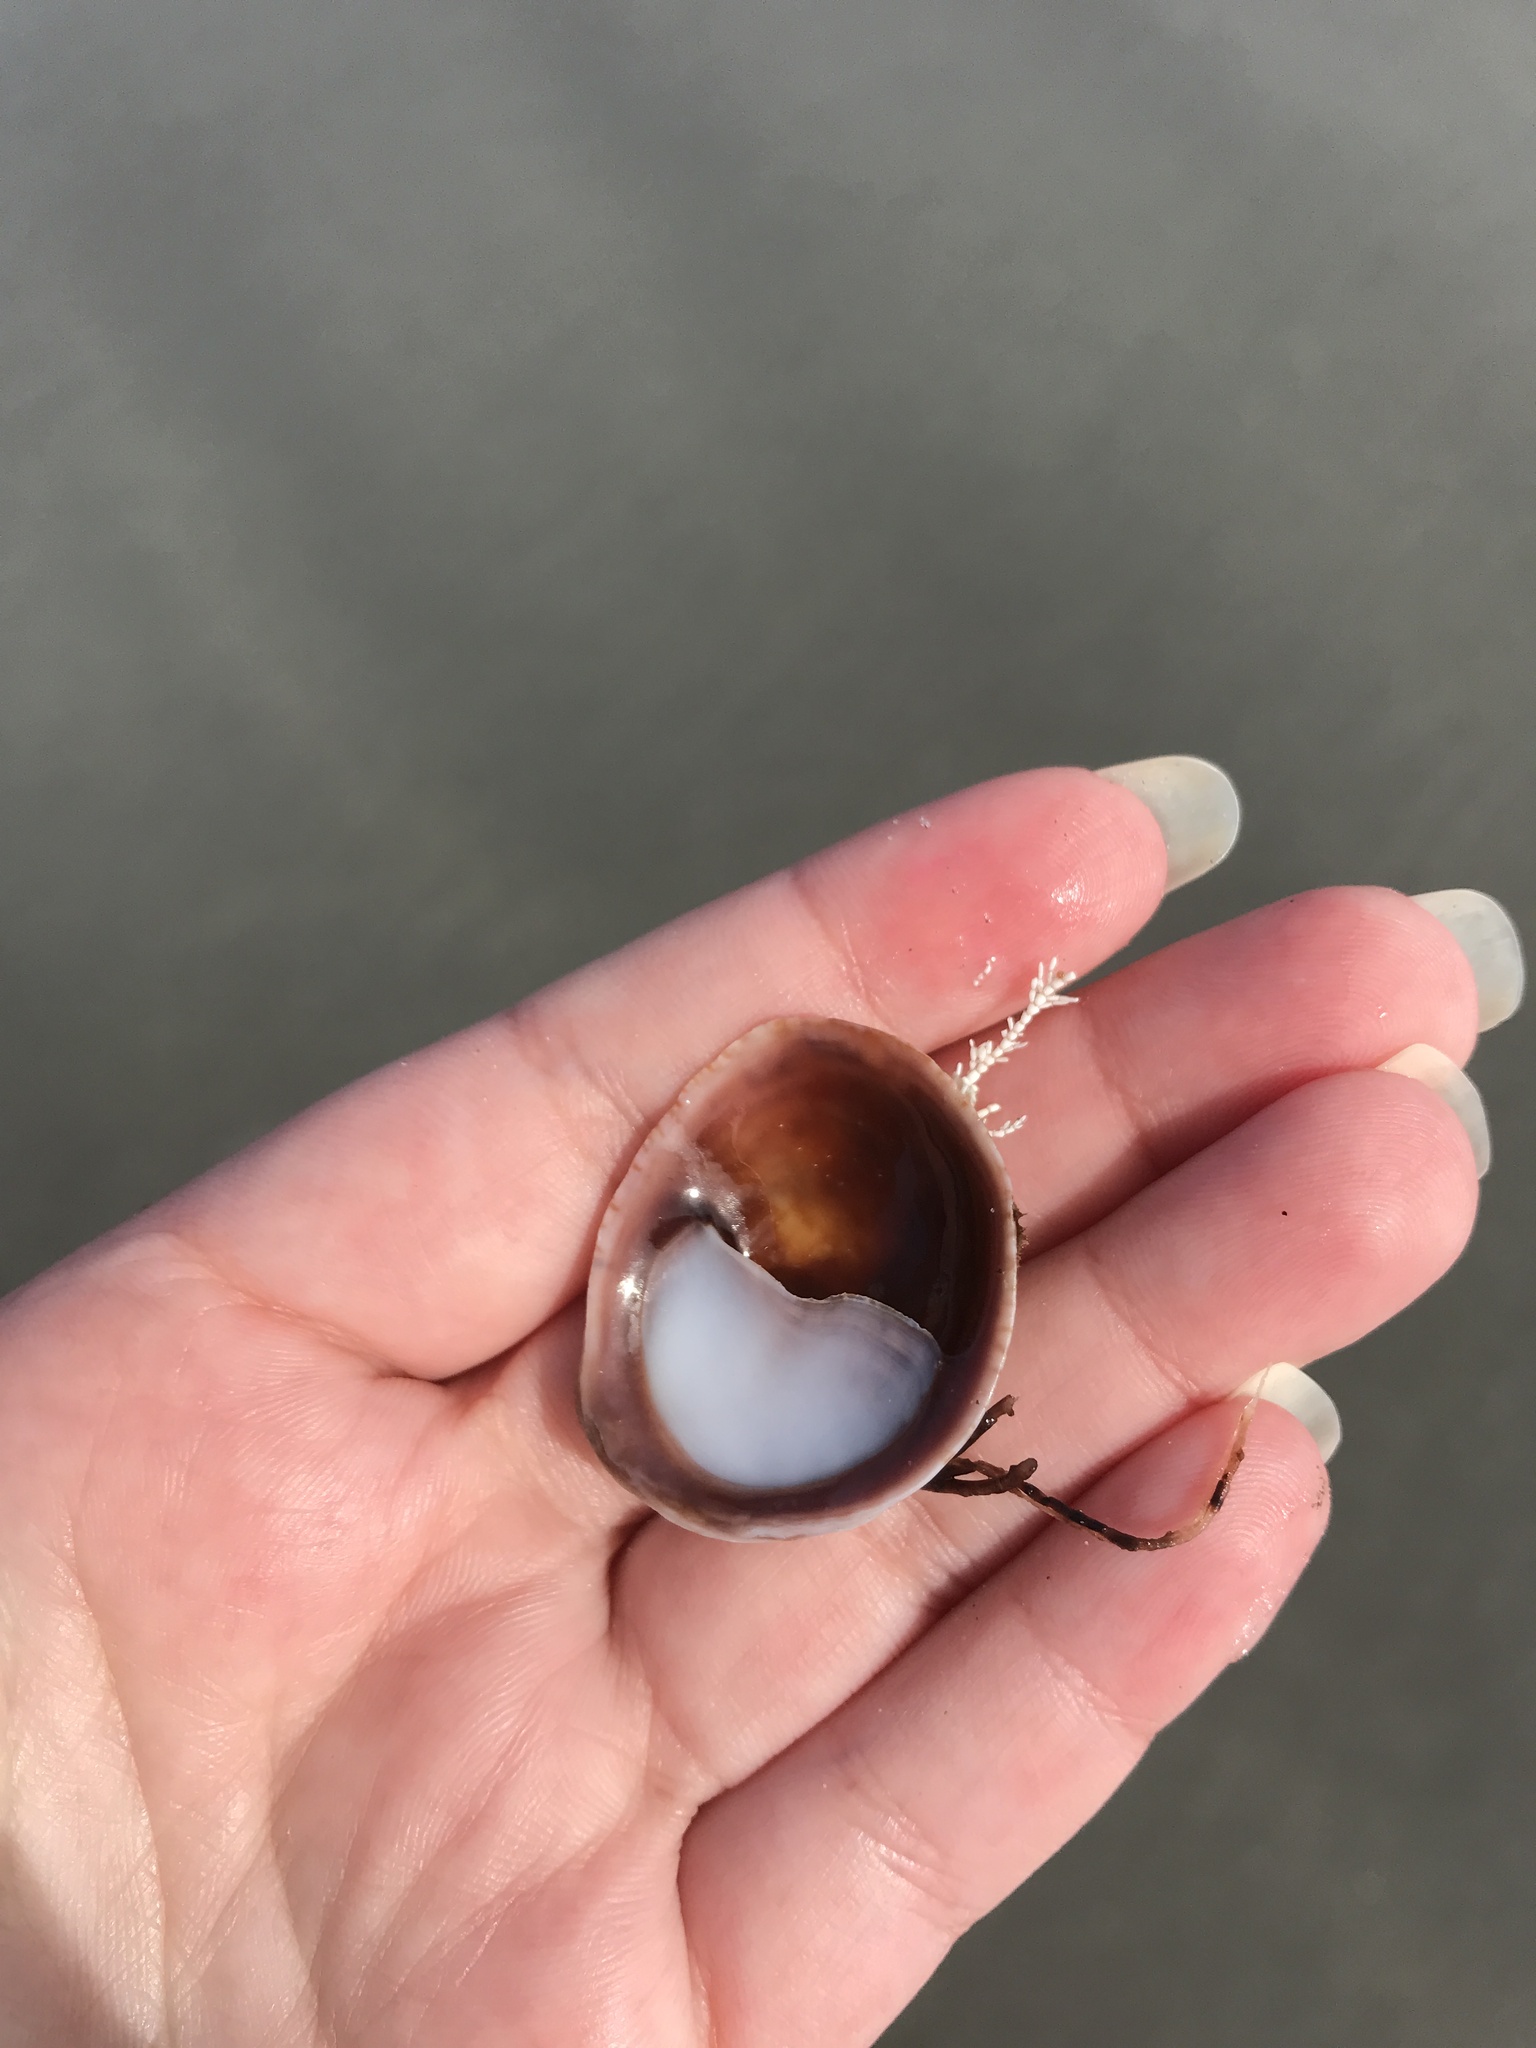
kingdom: Animalia
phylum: Mollusca
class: Gastropoda
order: Littorinimorpha
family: Calyptraeidae
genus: Crepidula
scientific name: Crepidula fornicata
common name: Slipper limpet
